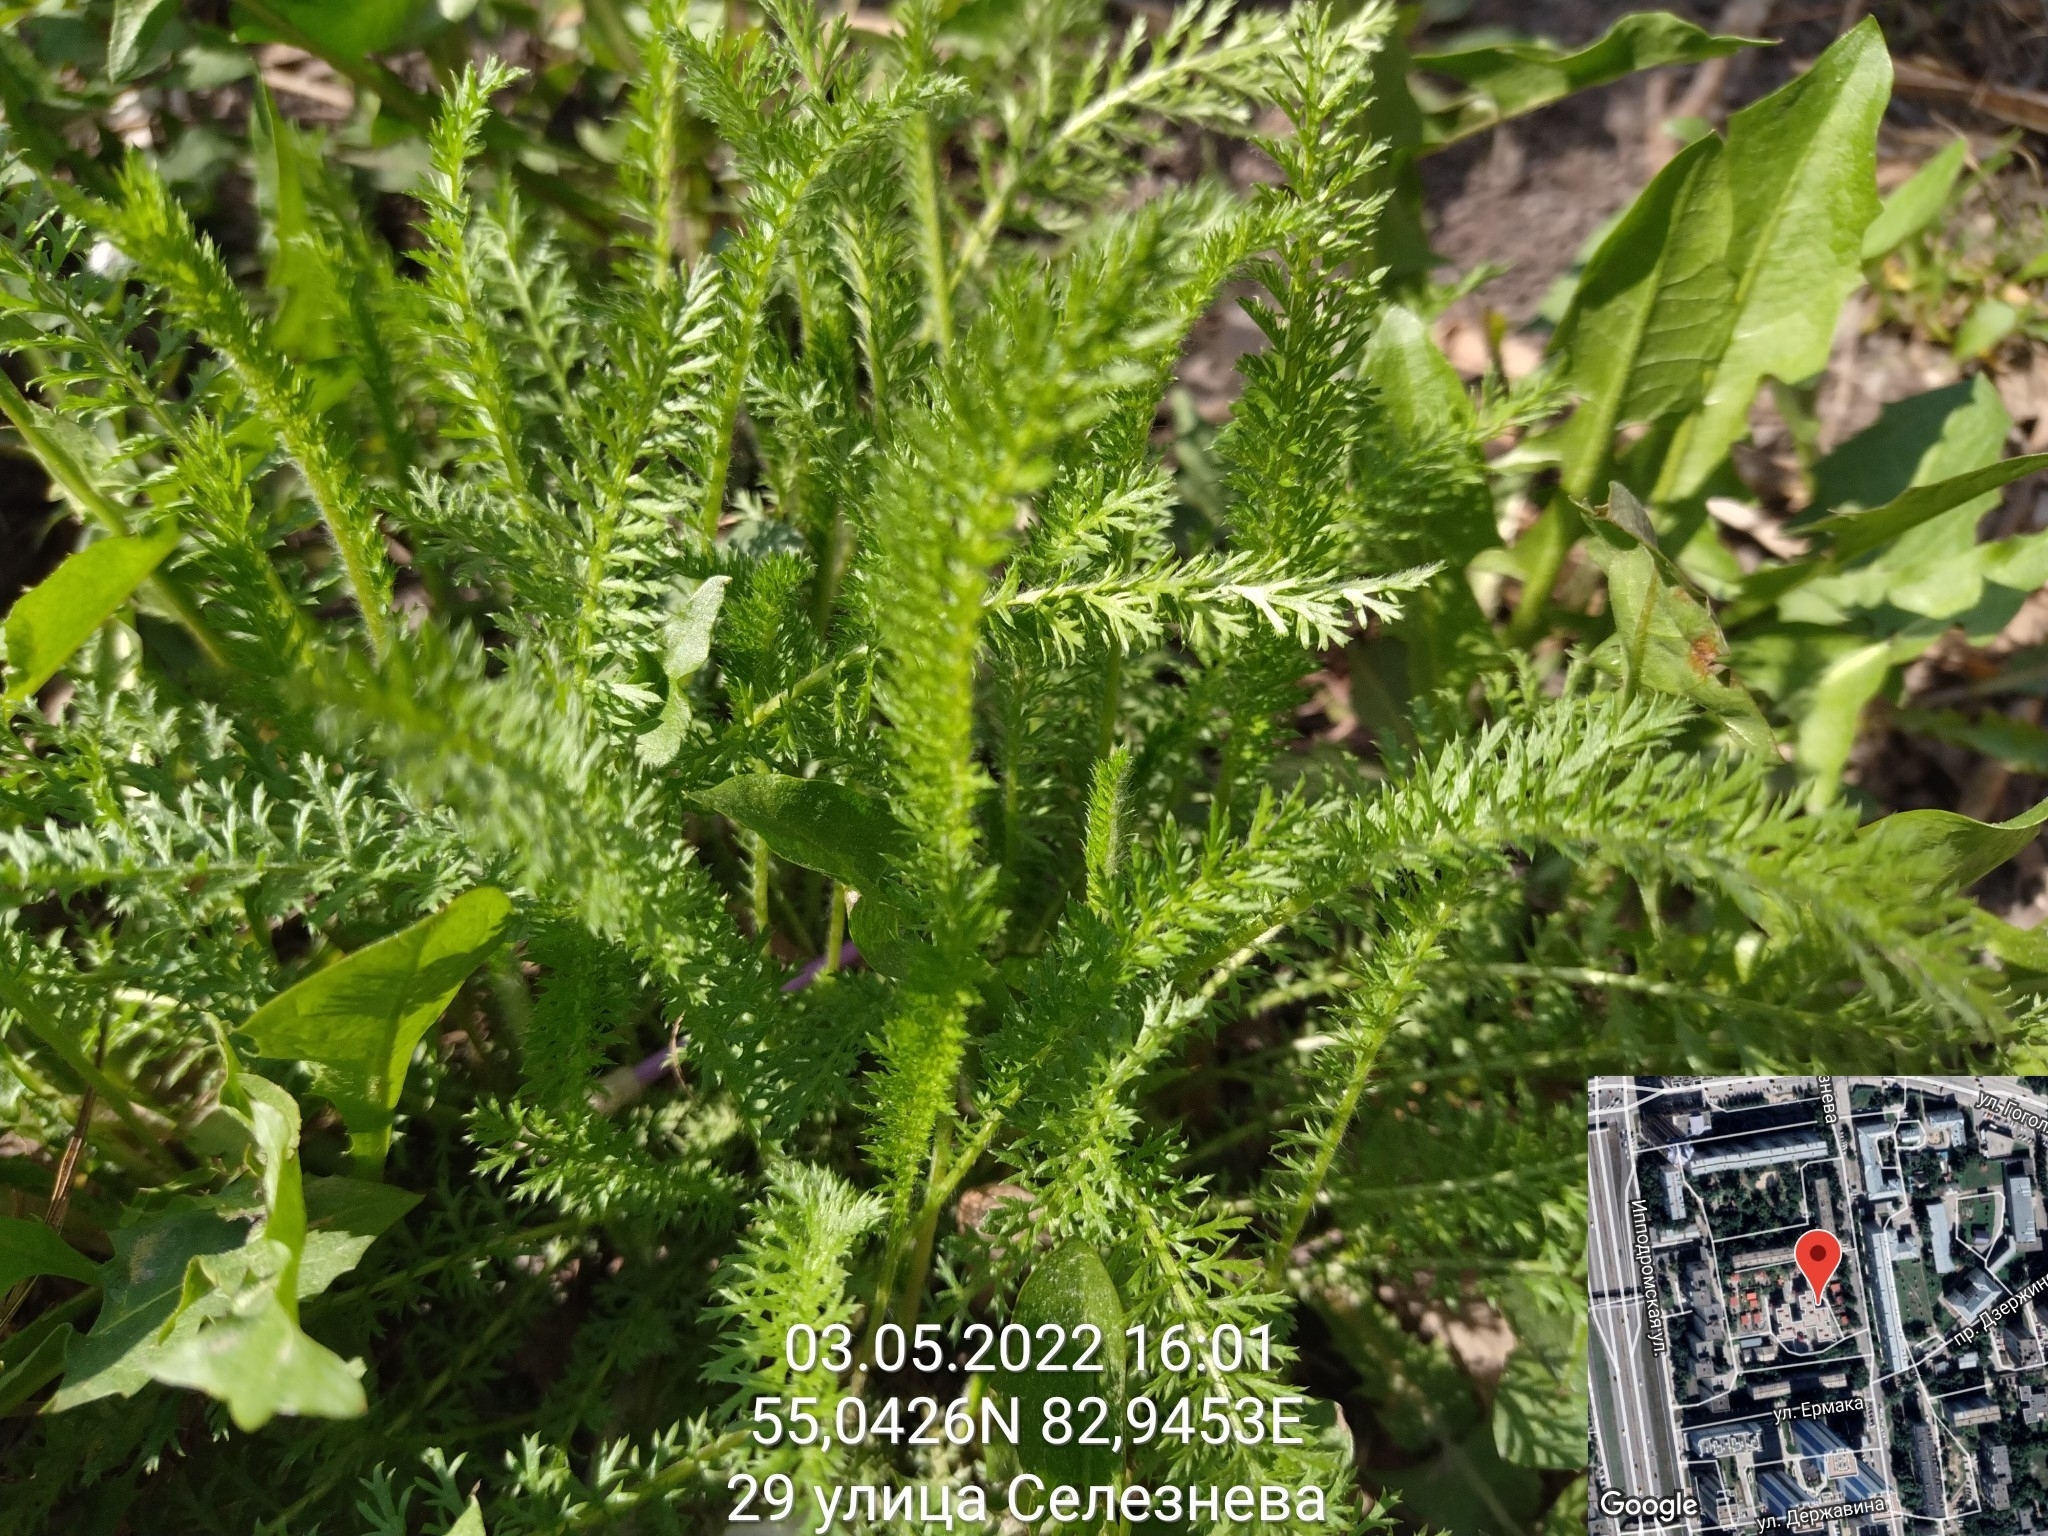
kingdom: Plantae
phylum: Tracheophyta
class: Magnoliopsida
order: Asterales
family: Asteraceae
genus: Achillea
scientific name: Achillea millefolium
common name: Yarrow
